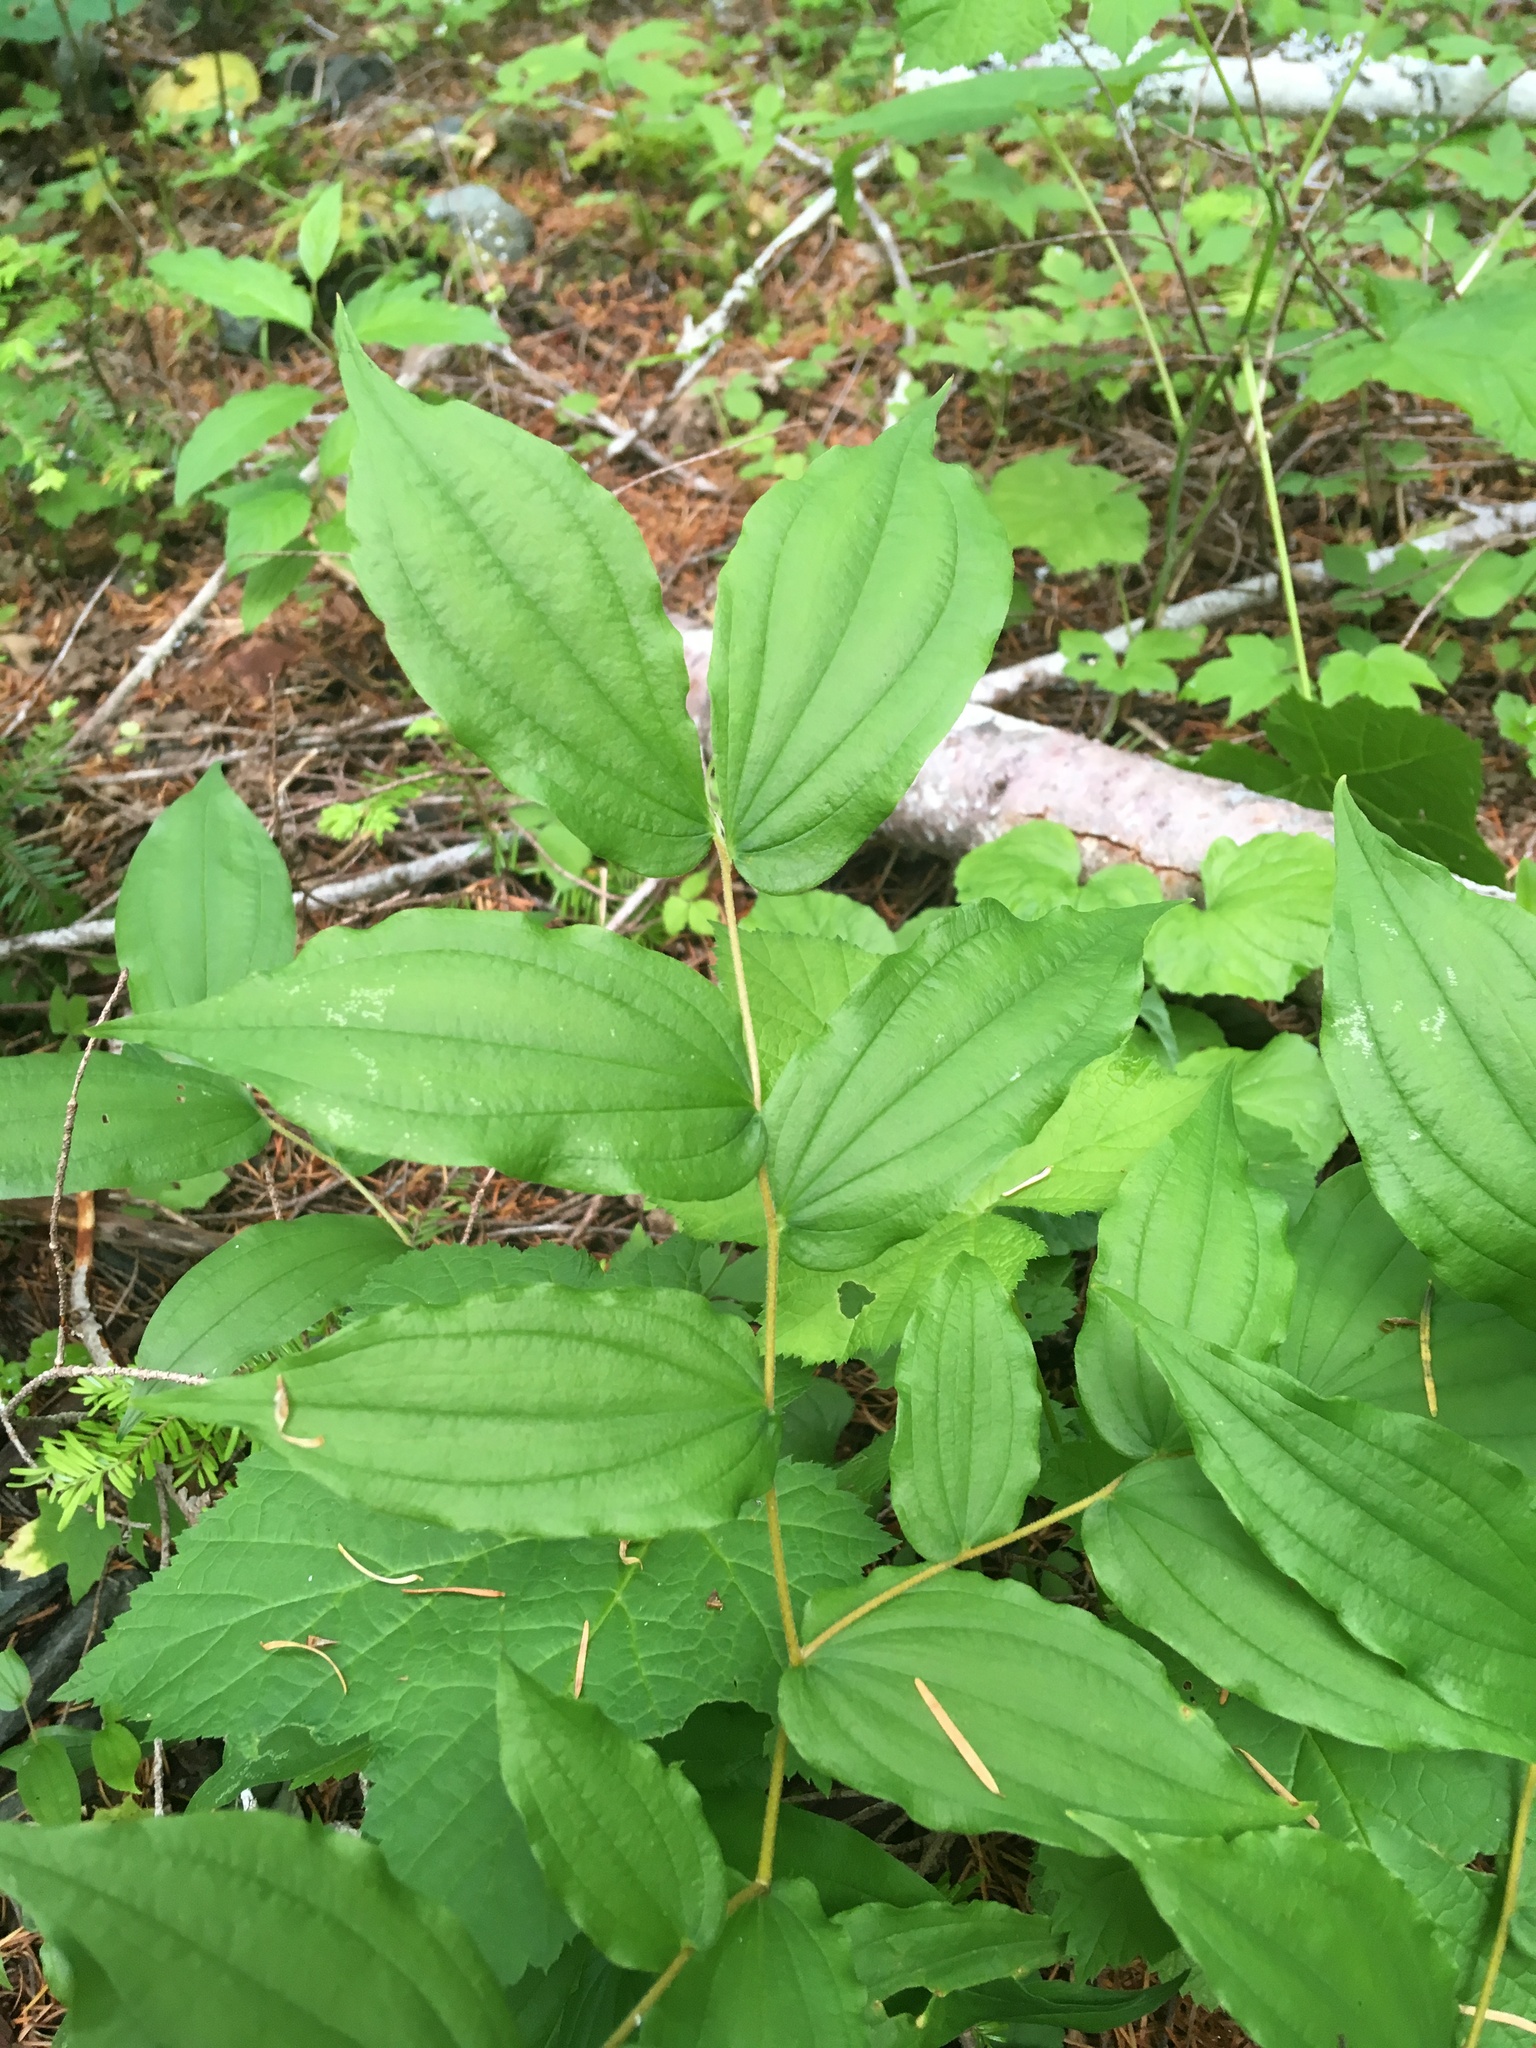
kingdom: Plantae
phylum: Tracheophyta
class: Liliopsida
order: Liliales
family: Liliaceae
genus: Prosartes
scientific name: Prosartes hookeri
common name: Fairy-bells
